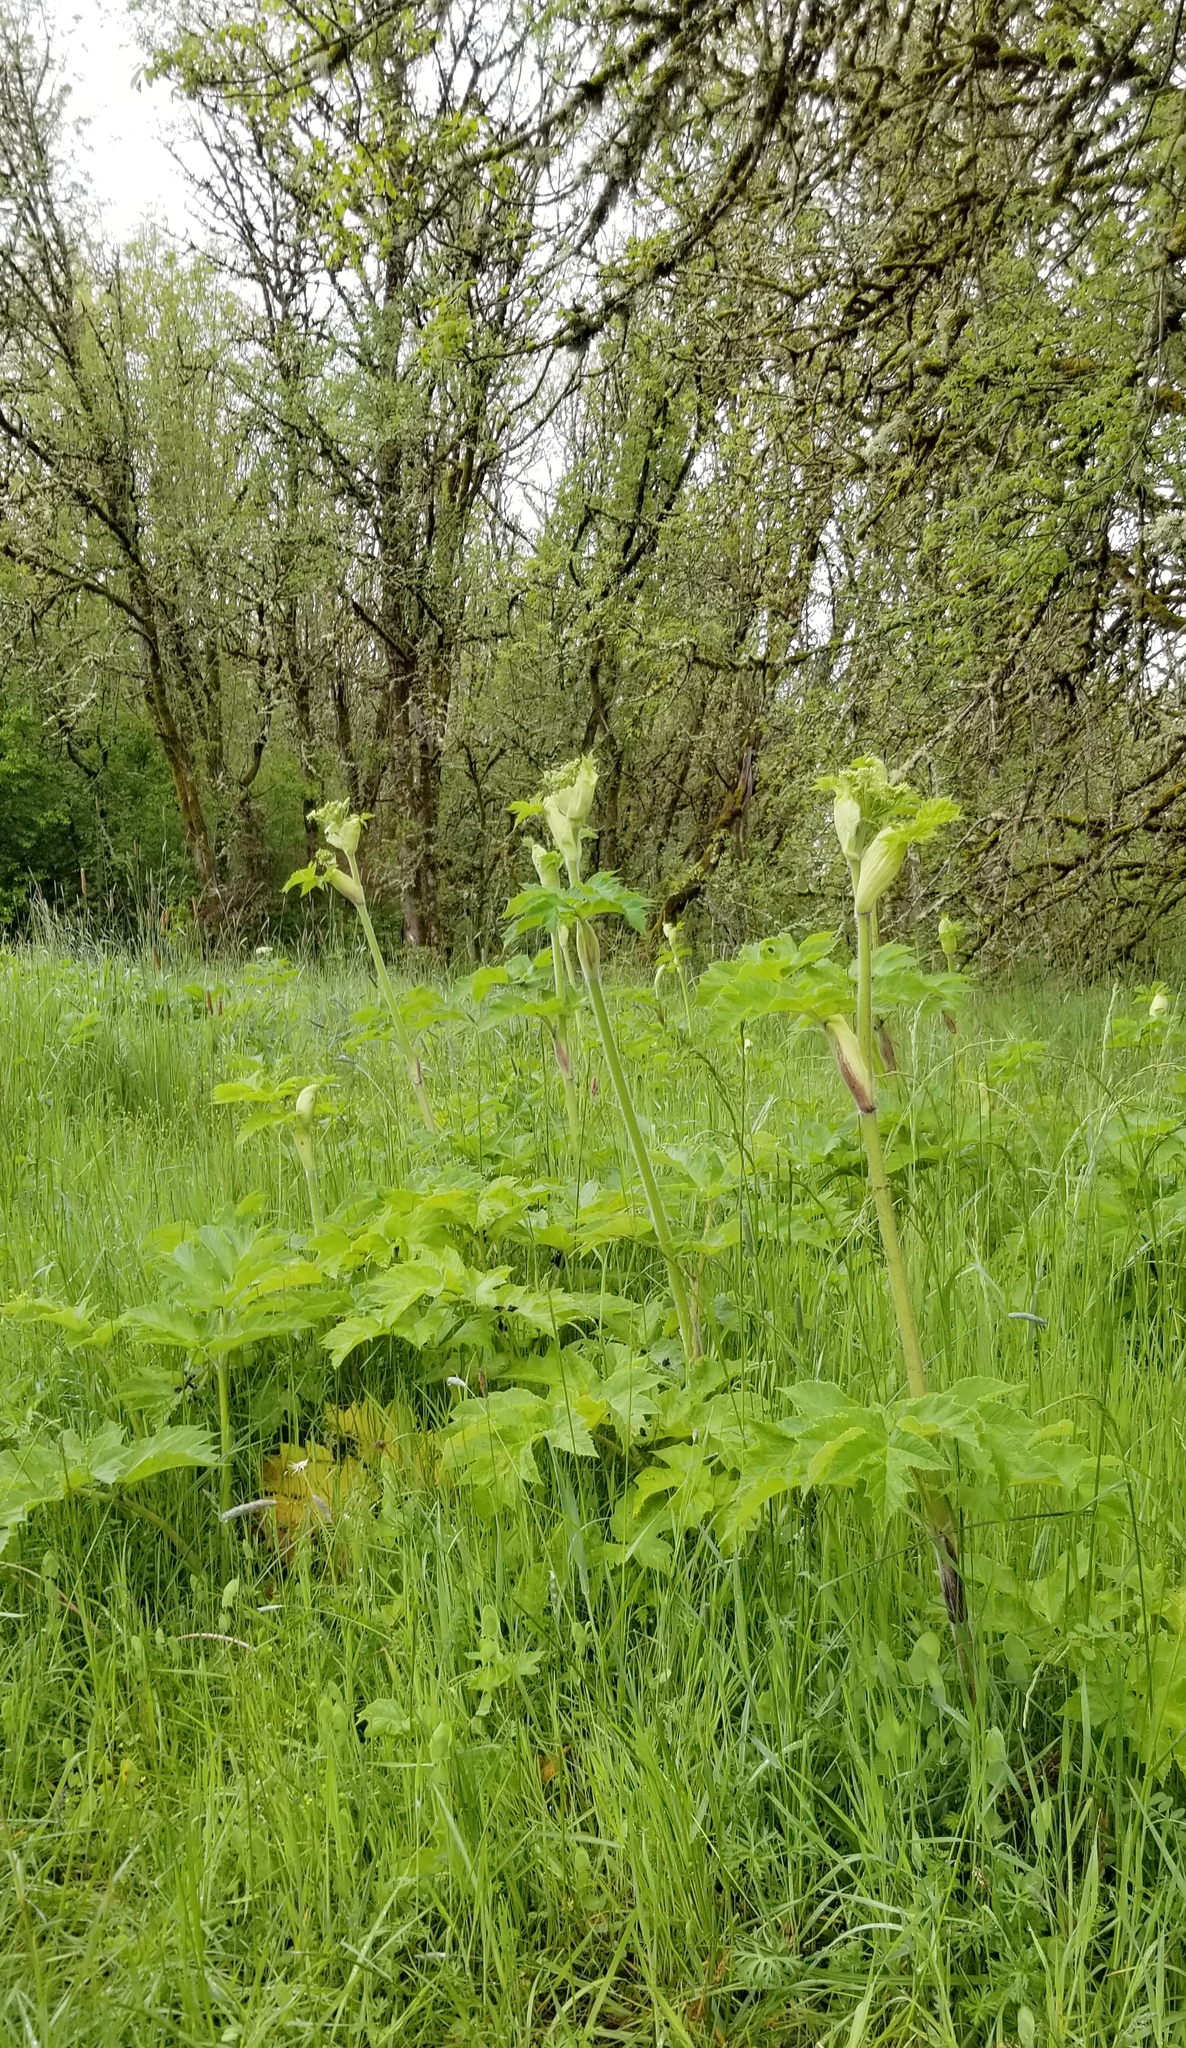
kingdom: Plantae
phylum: Tracheophyta
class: Magnoliopsida
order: Apiales
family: Apiaceae
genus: Heracleum
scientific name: Heracleum maximum
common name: American cow parsnip
